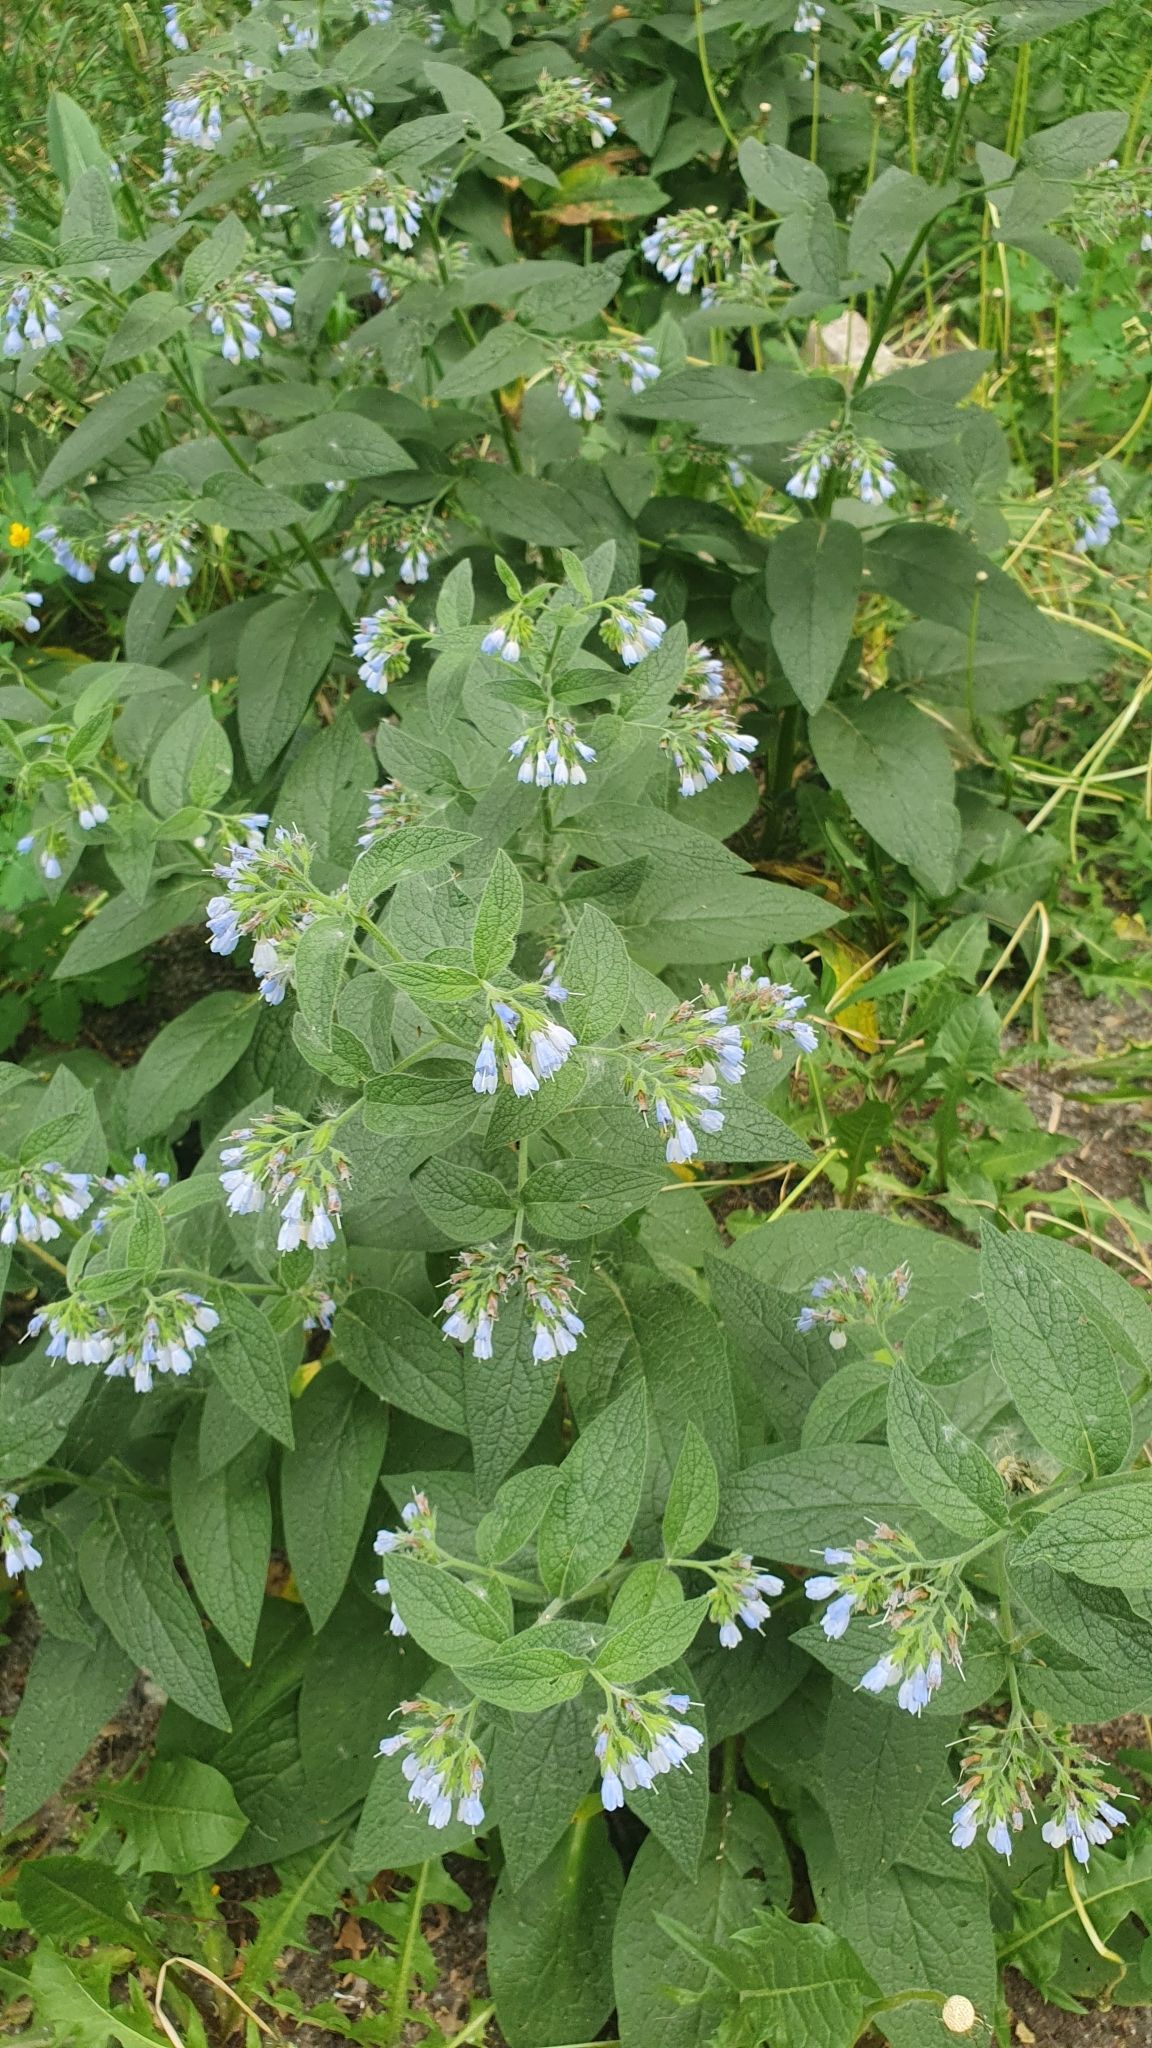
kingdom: Plantae
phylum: Tracheophyta
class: Magnoliopsida
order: Boraginales
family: Boraginaceae
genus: Symphytum
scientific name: Symphytum caucasicum
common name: Caucasian comfrey
